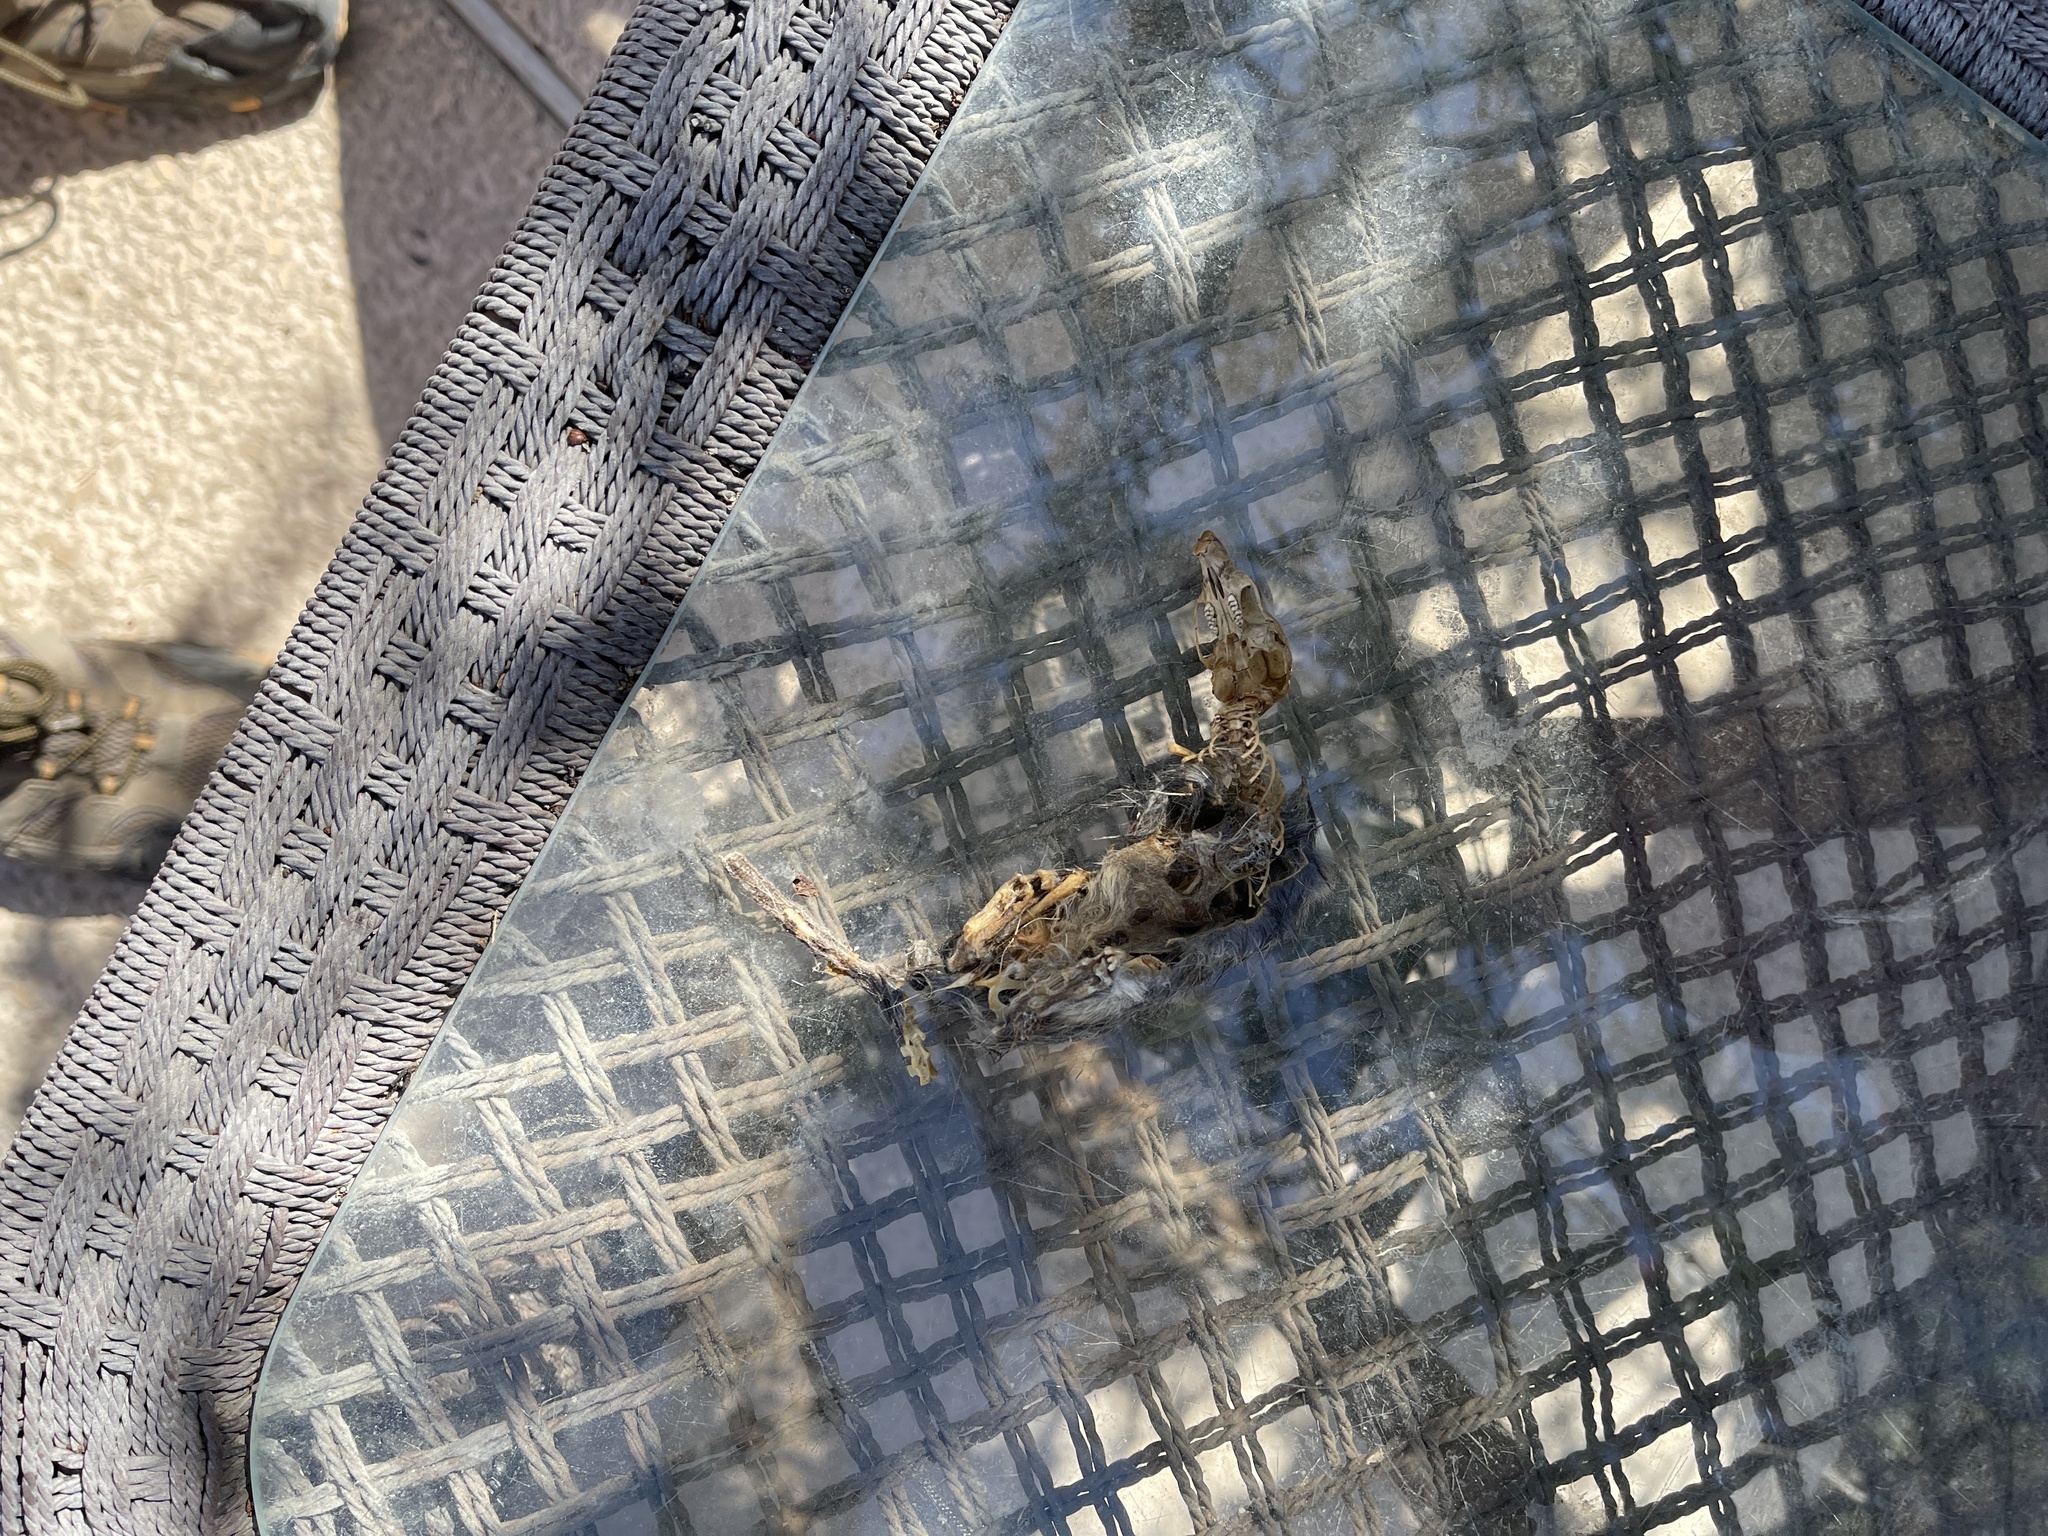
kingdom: Animalia
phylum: Chordata
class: Mammalia
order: Rodentia
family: Muridae
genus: Rattus
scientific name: Rattus norvegicus
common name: Brown rat
